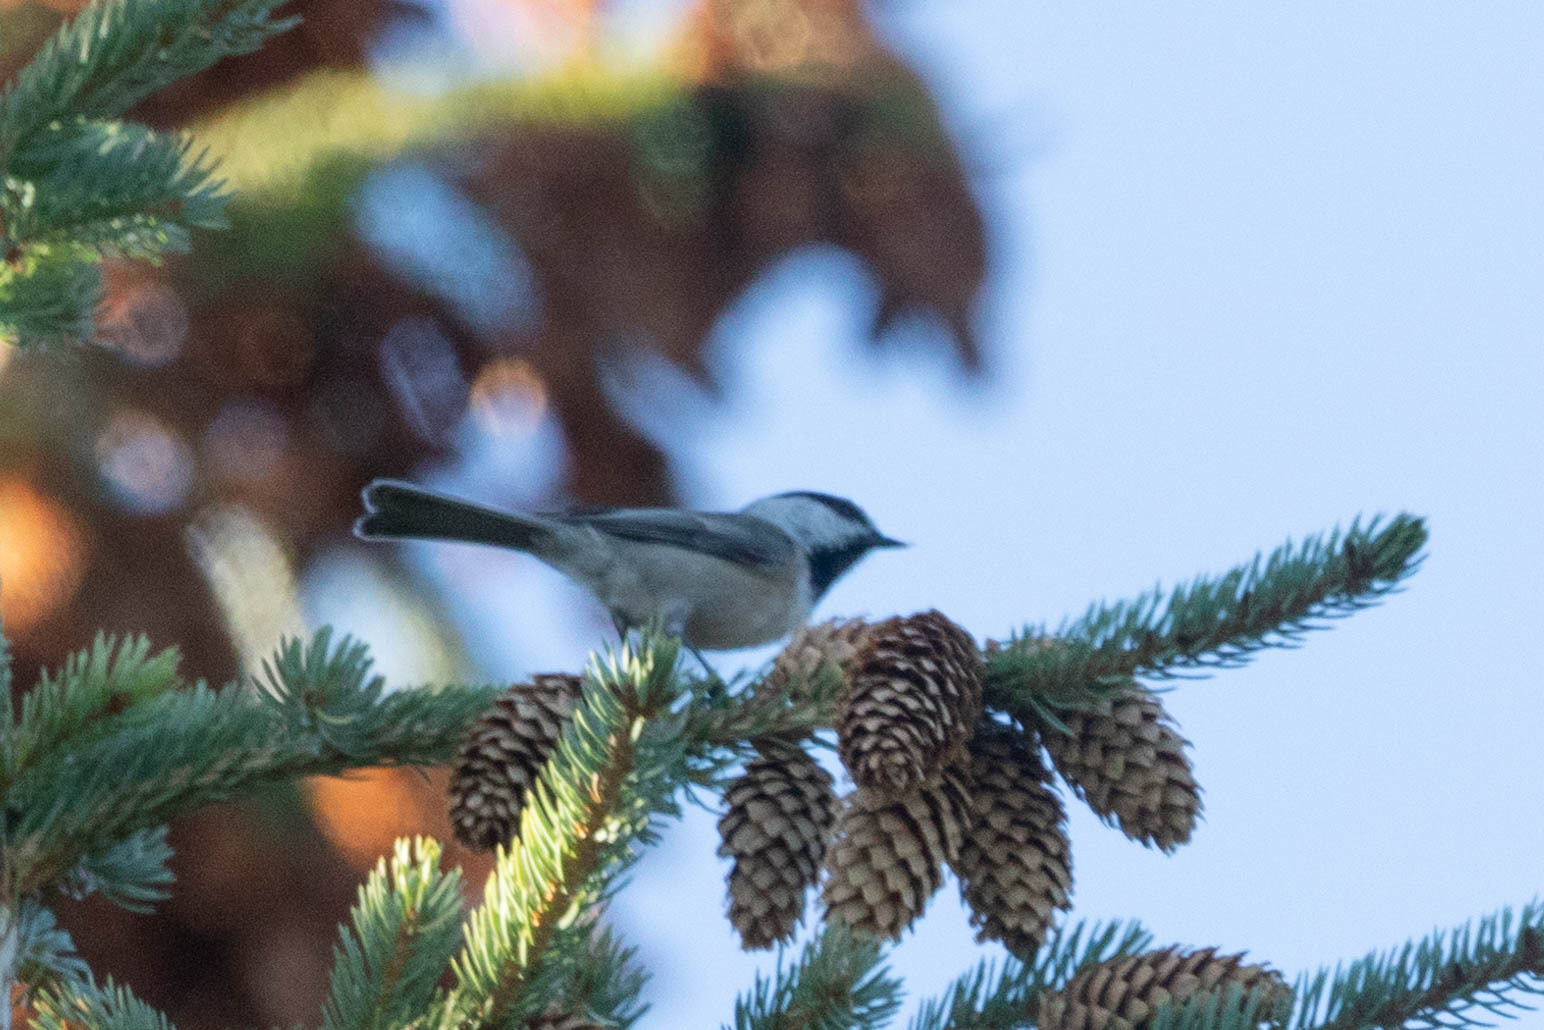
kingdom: Animalia
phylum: Chordata
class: Aves
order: Passeriformes
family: Paridae
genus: Poecile
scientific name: Poecile atricapillus
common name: Black-capped chickadee
